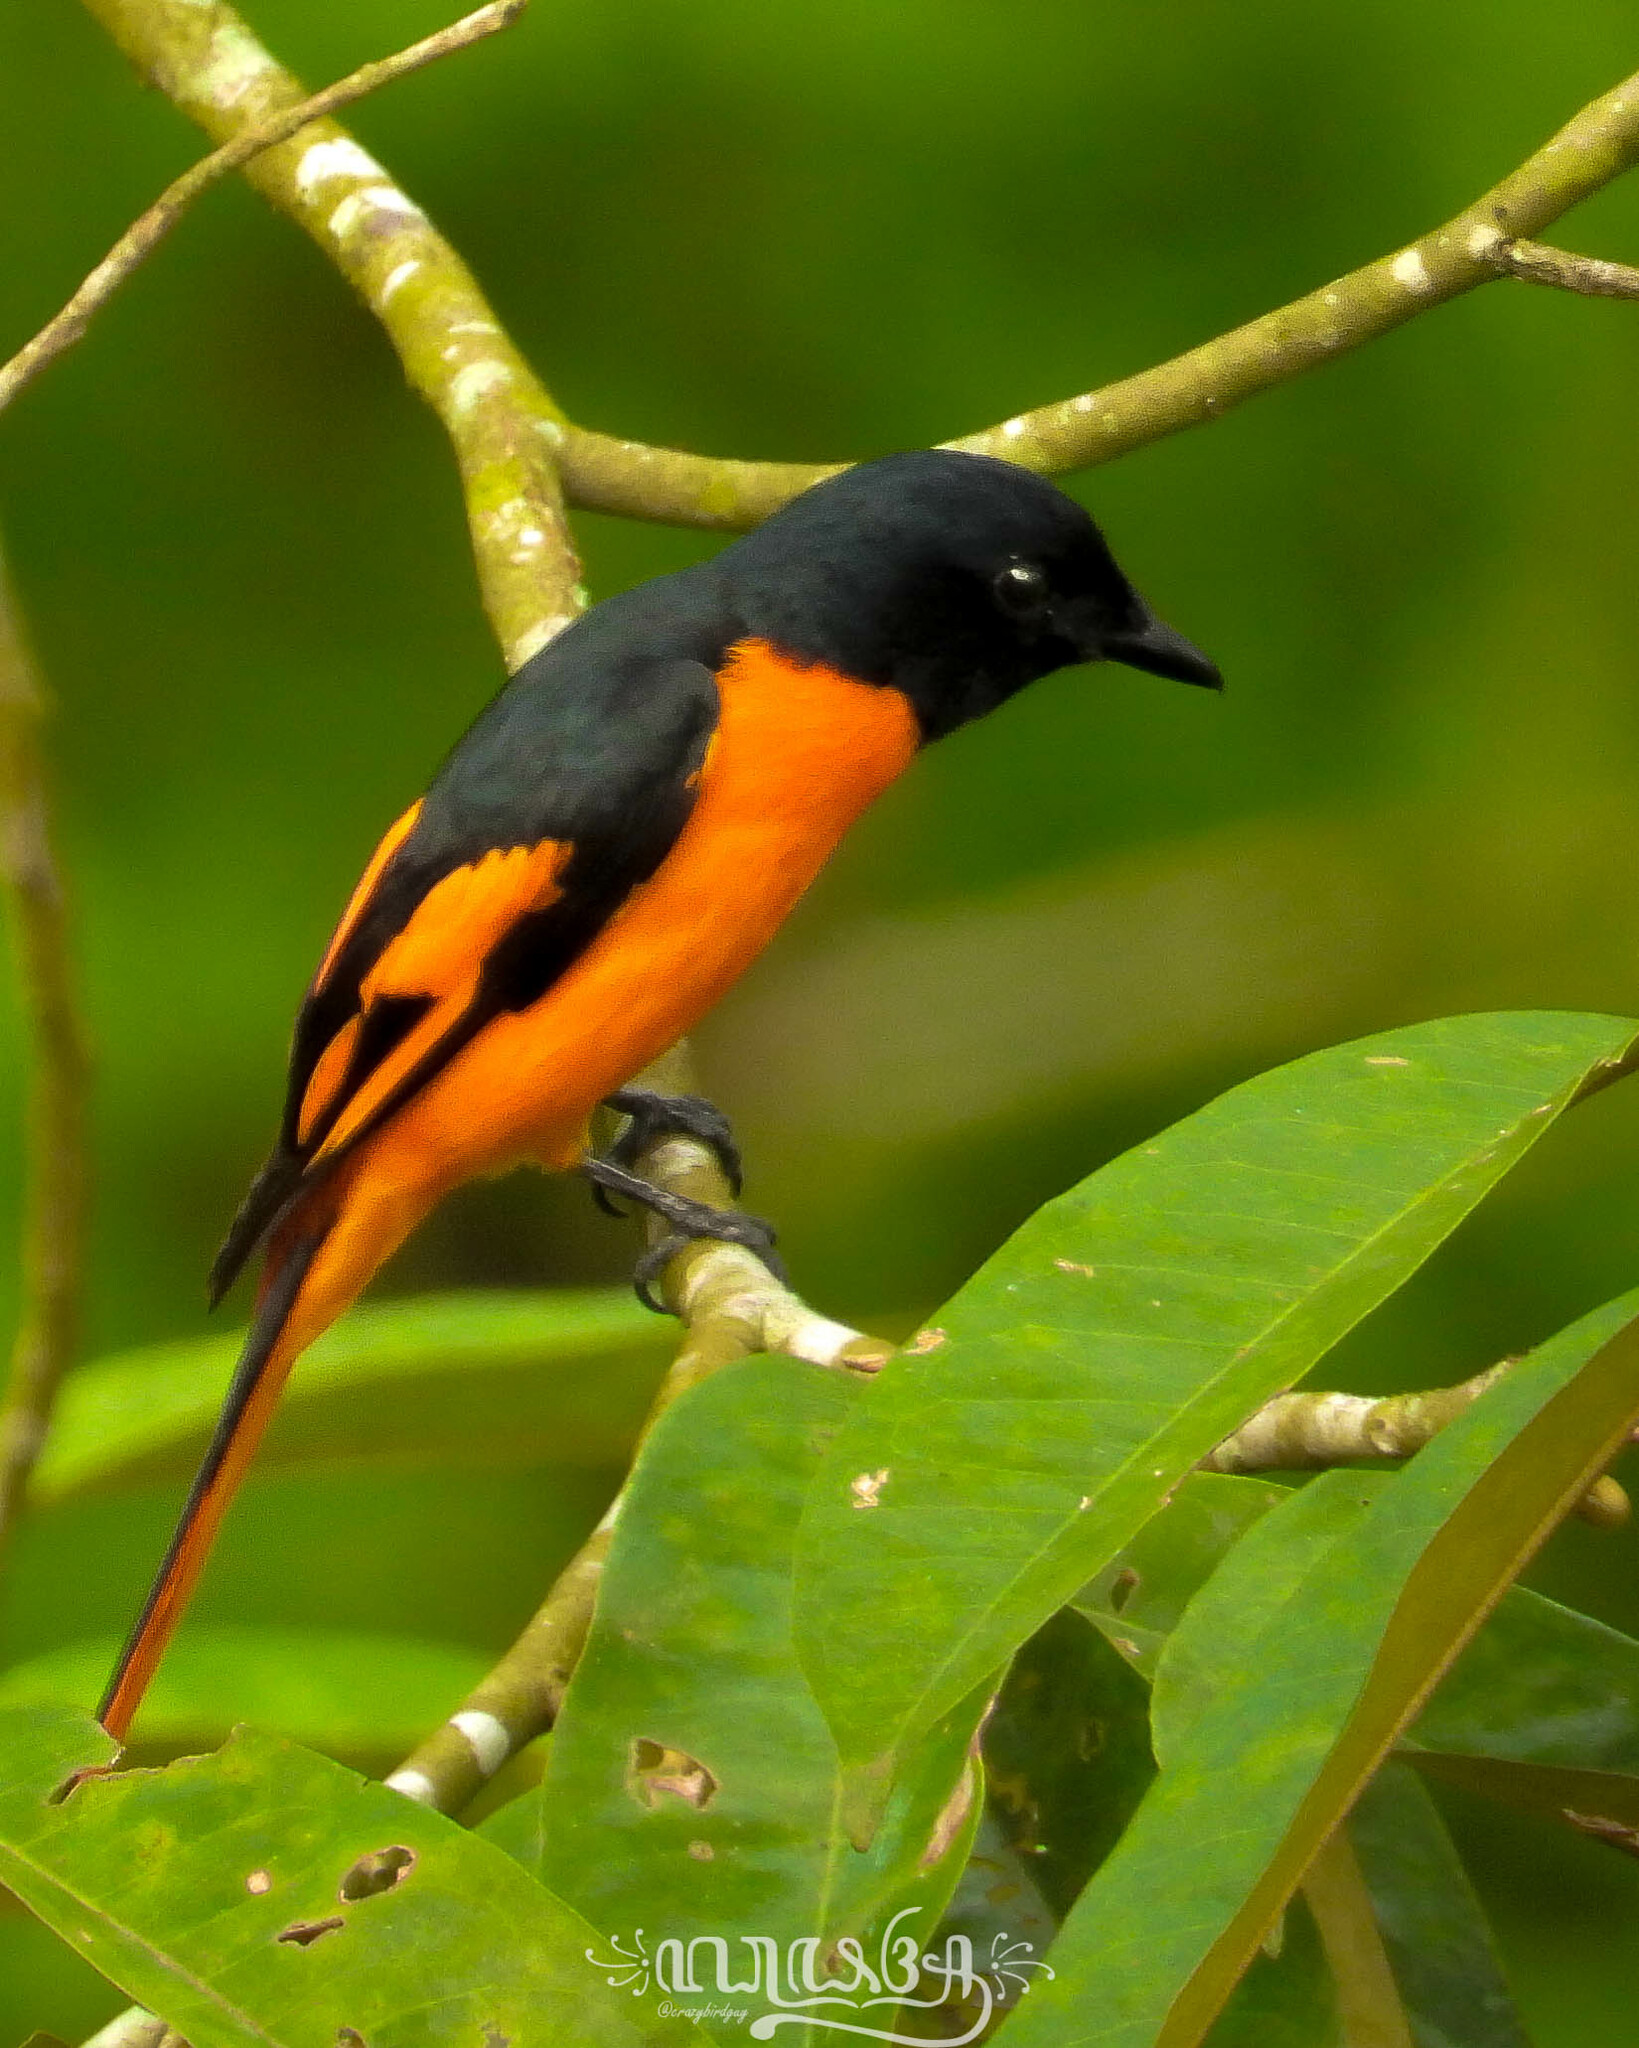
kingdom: Animalia
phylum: Chordata
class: Aves
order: Passeriformes
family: Campephagidae
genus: Pericrocotus
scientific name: Pericrocotus speciosus
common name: Scarlet minivet
